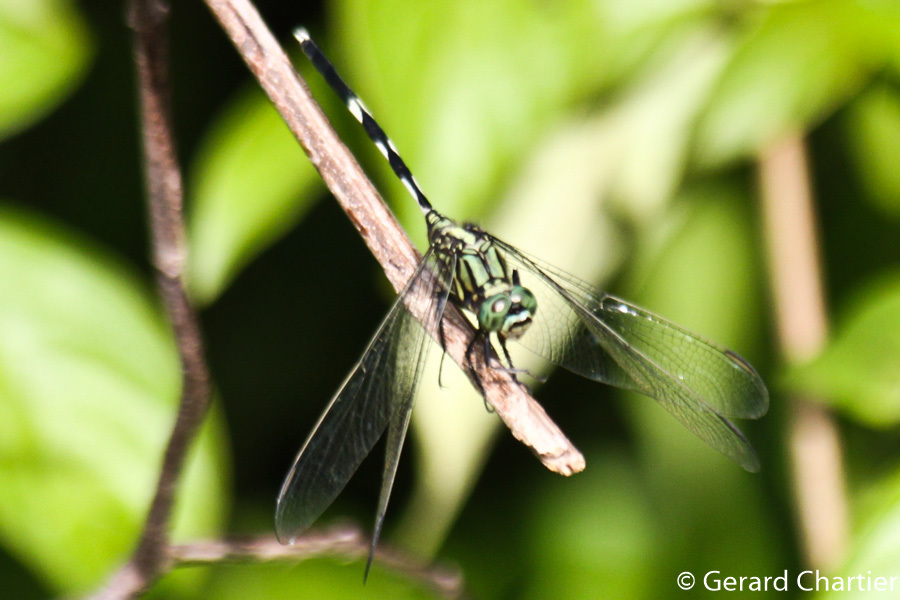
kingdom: Animalia
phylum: Arthropoda
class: Insecta
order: Odonata
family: Libellulidae
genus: Orthetrum
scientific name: Orthetrum sabina
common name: Slender skimmer
